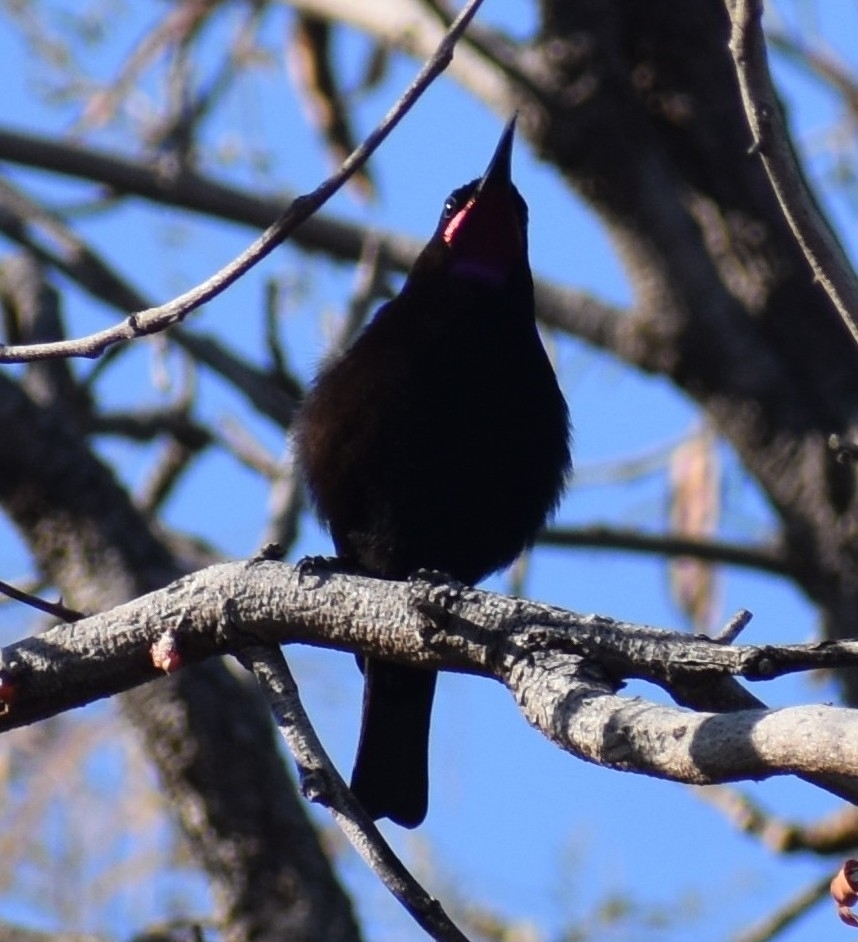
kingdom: Animalia
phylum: Chordata
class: Aves
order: Passeriformes
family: Nectariniidae
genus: Chalcomitra
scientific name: Chalcomitra amethystina
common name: Amethyst sunbird
